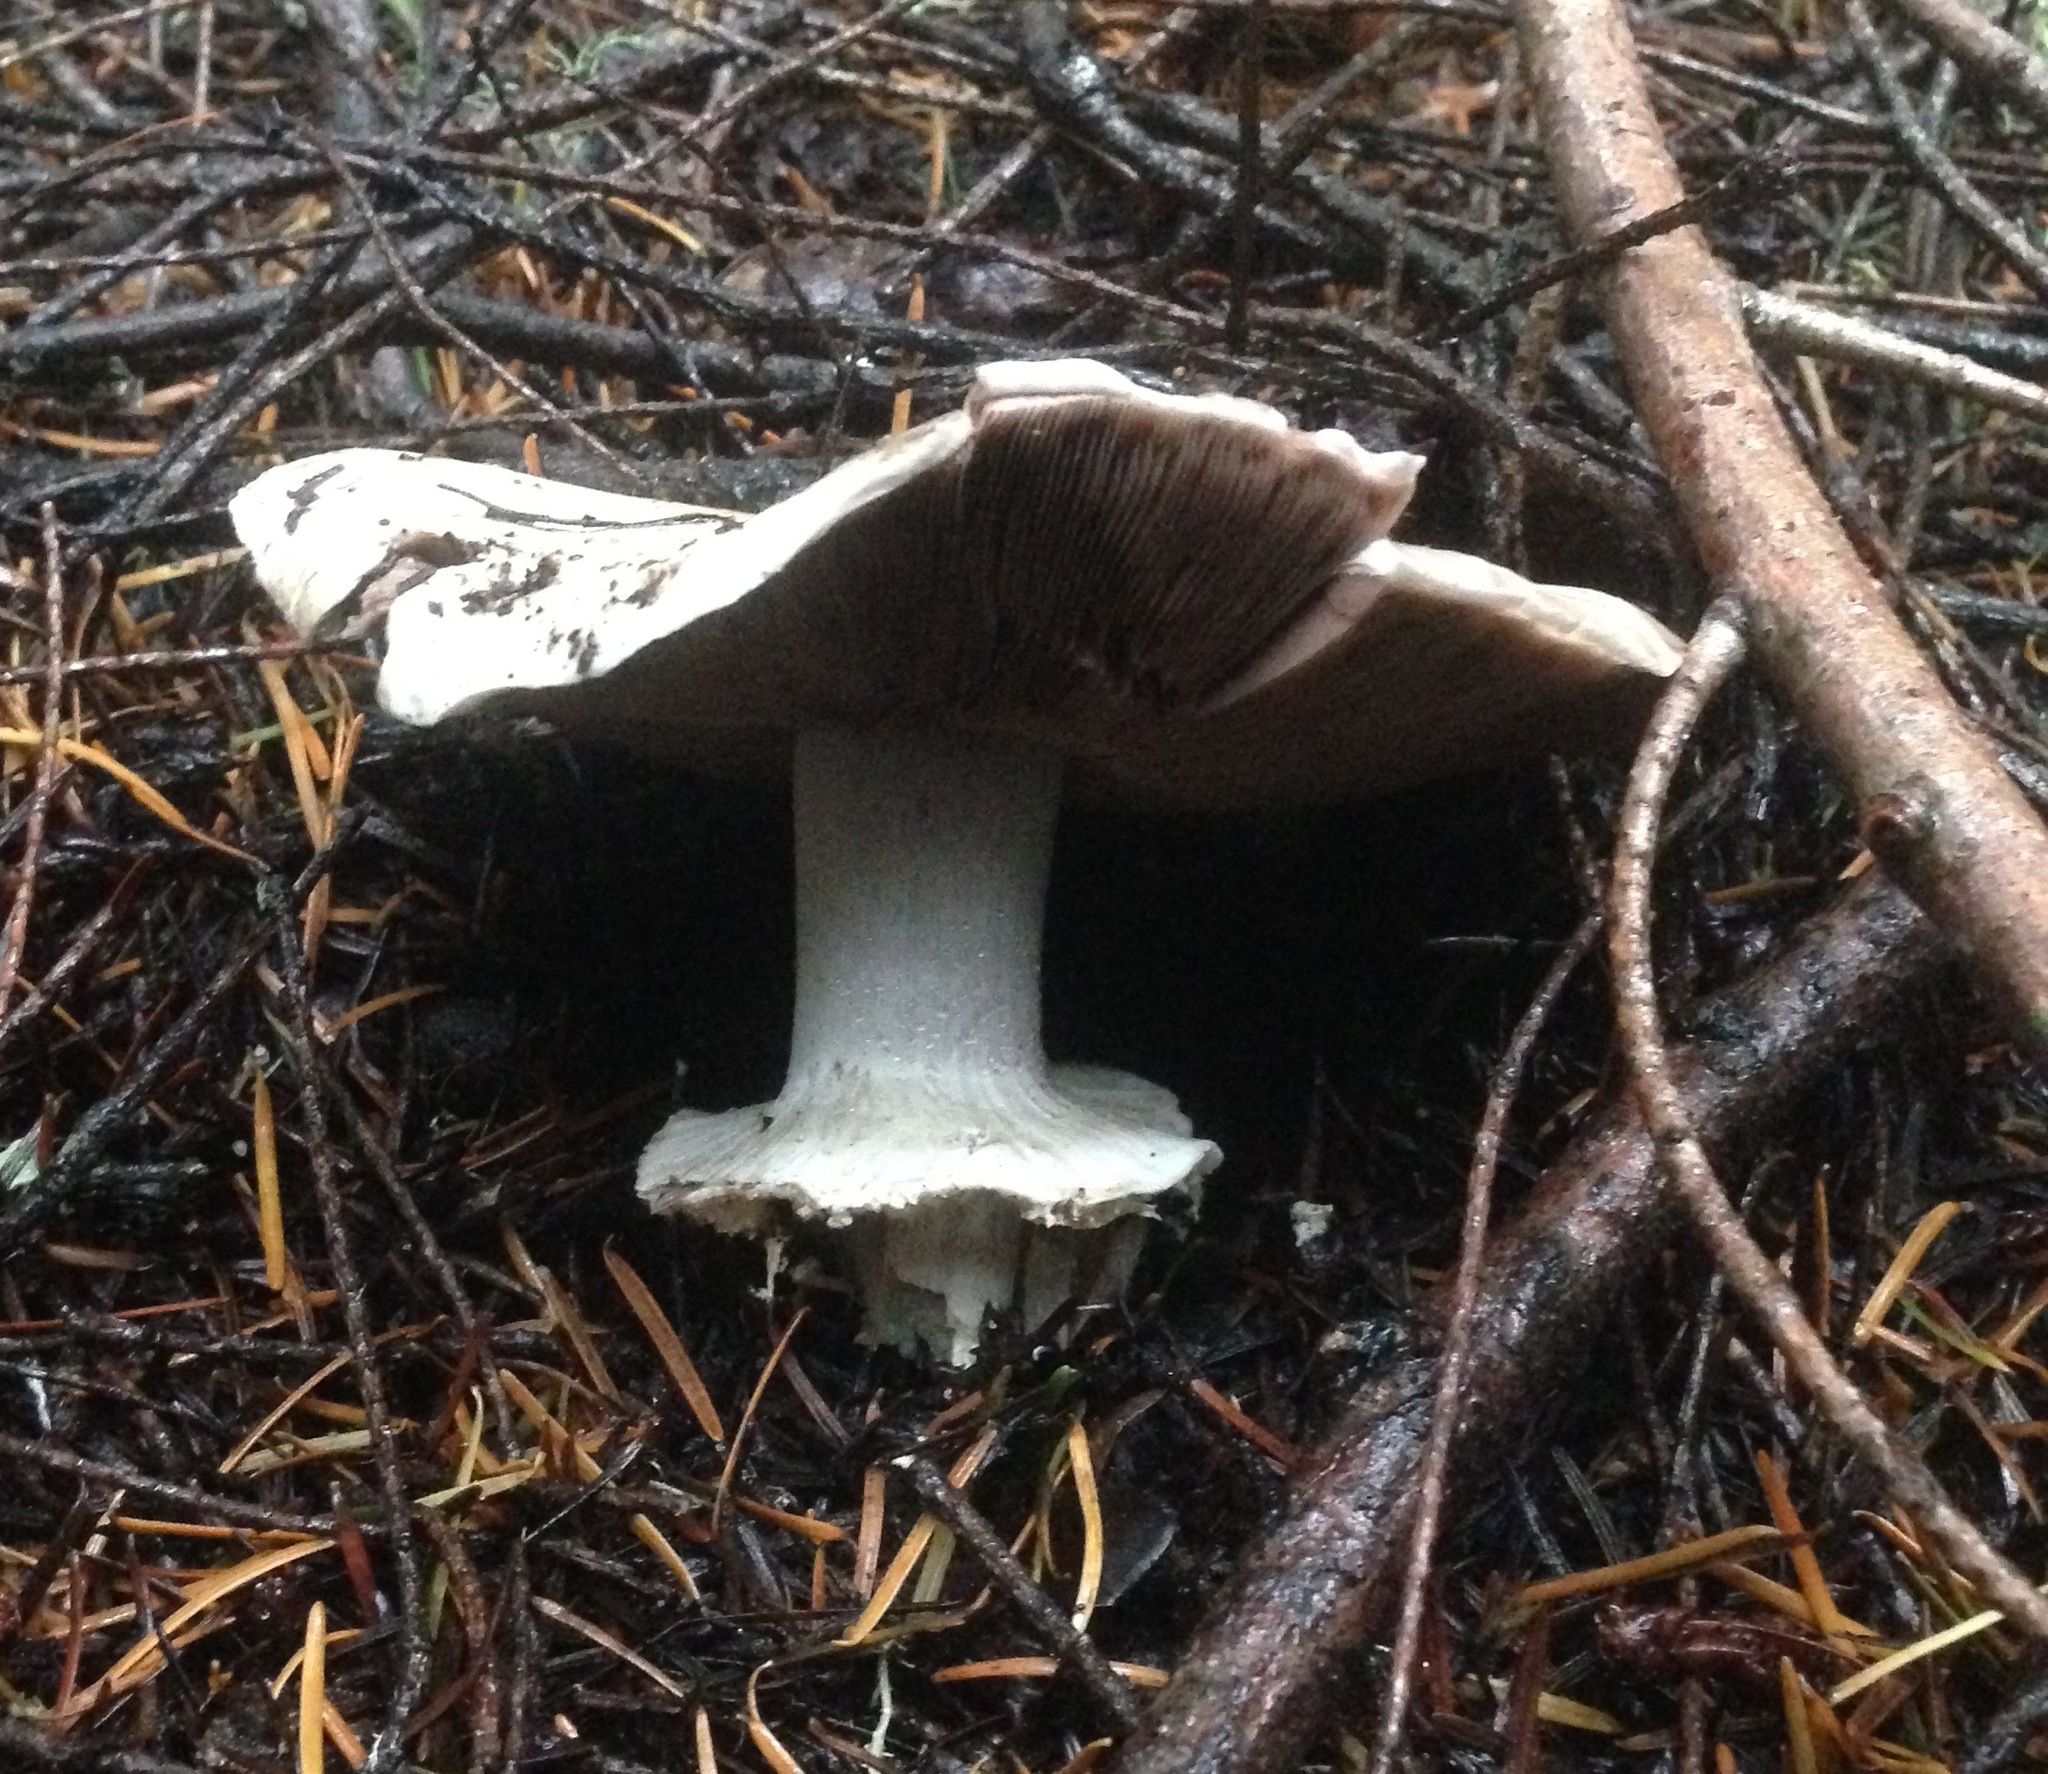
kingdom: Fungi
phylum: Basidiomycota
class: Agaricomycetes
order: Agaricales
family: Agaricaceae
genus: Agaricus
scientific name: Agaricus hondensis
